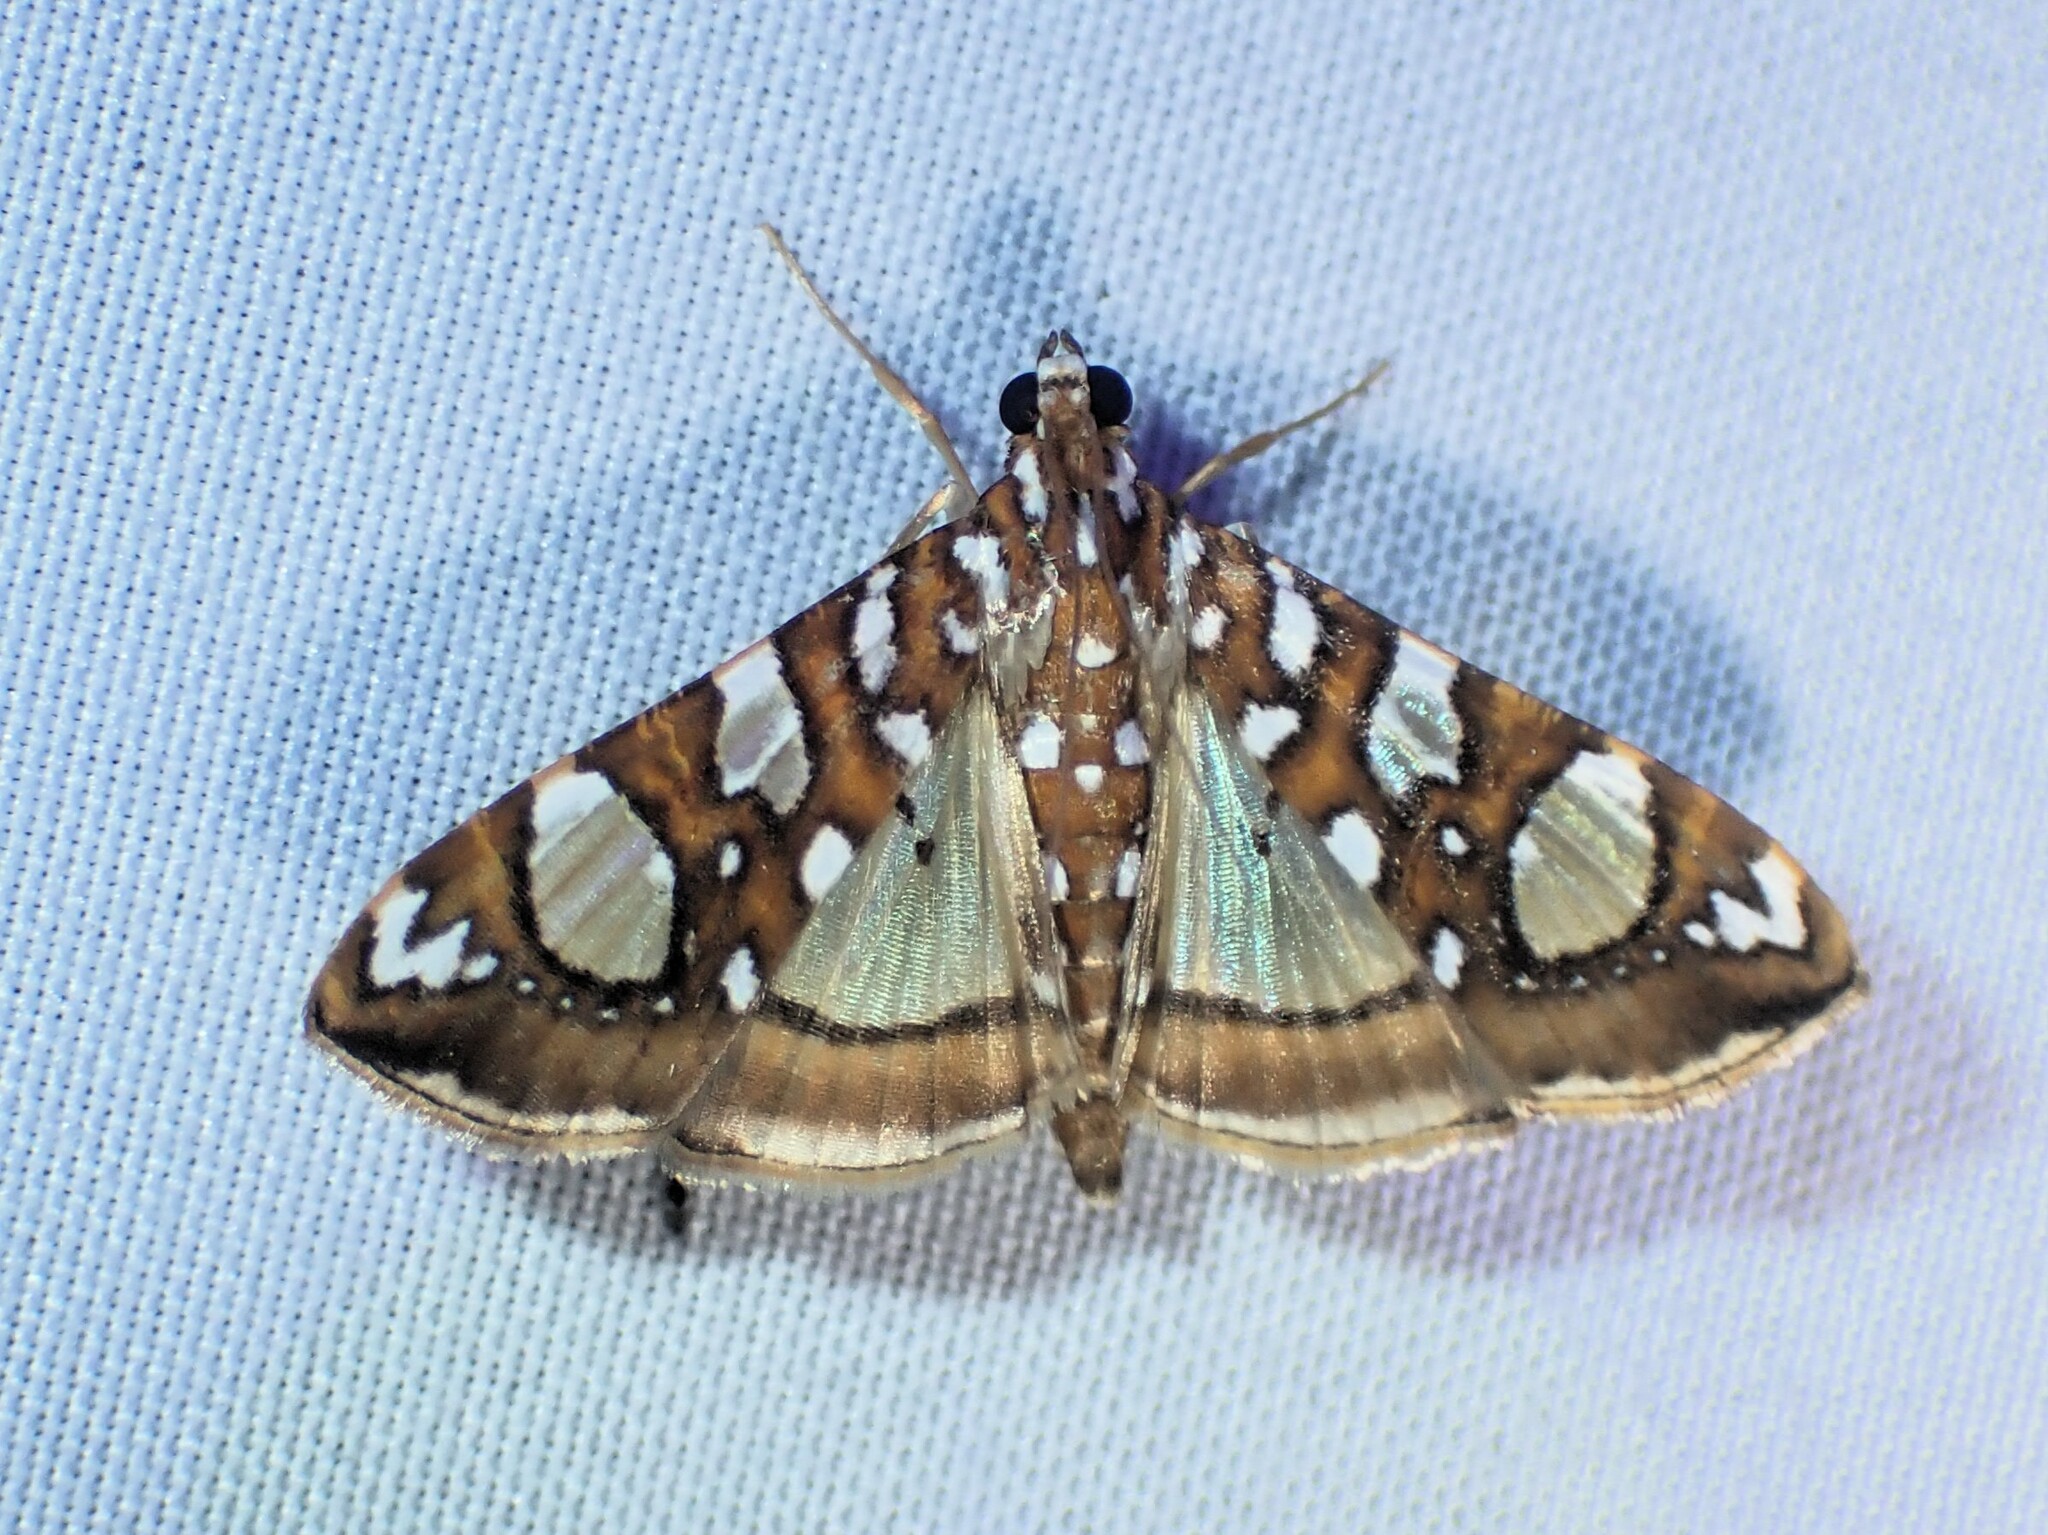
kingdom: Animalia
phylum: Arthropoda
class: Insecta
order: Lepidoptera
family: Crambidae
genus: Glyphodes
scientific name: Glyphodes sibillalis
